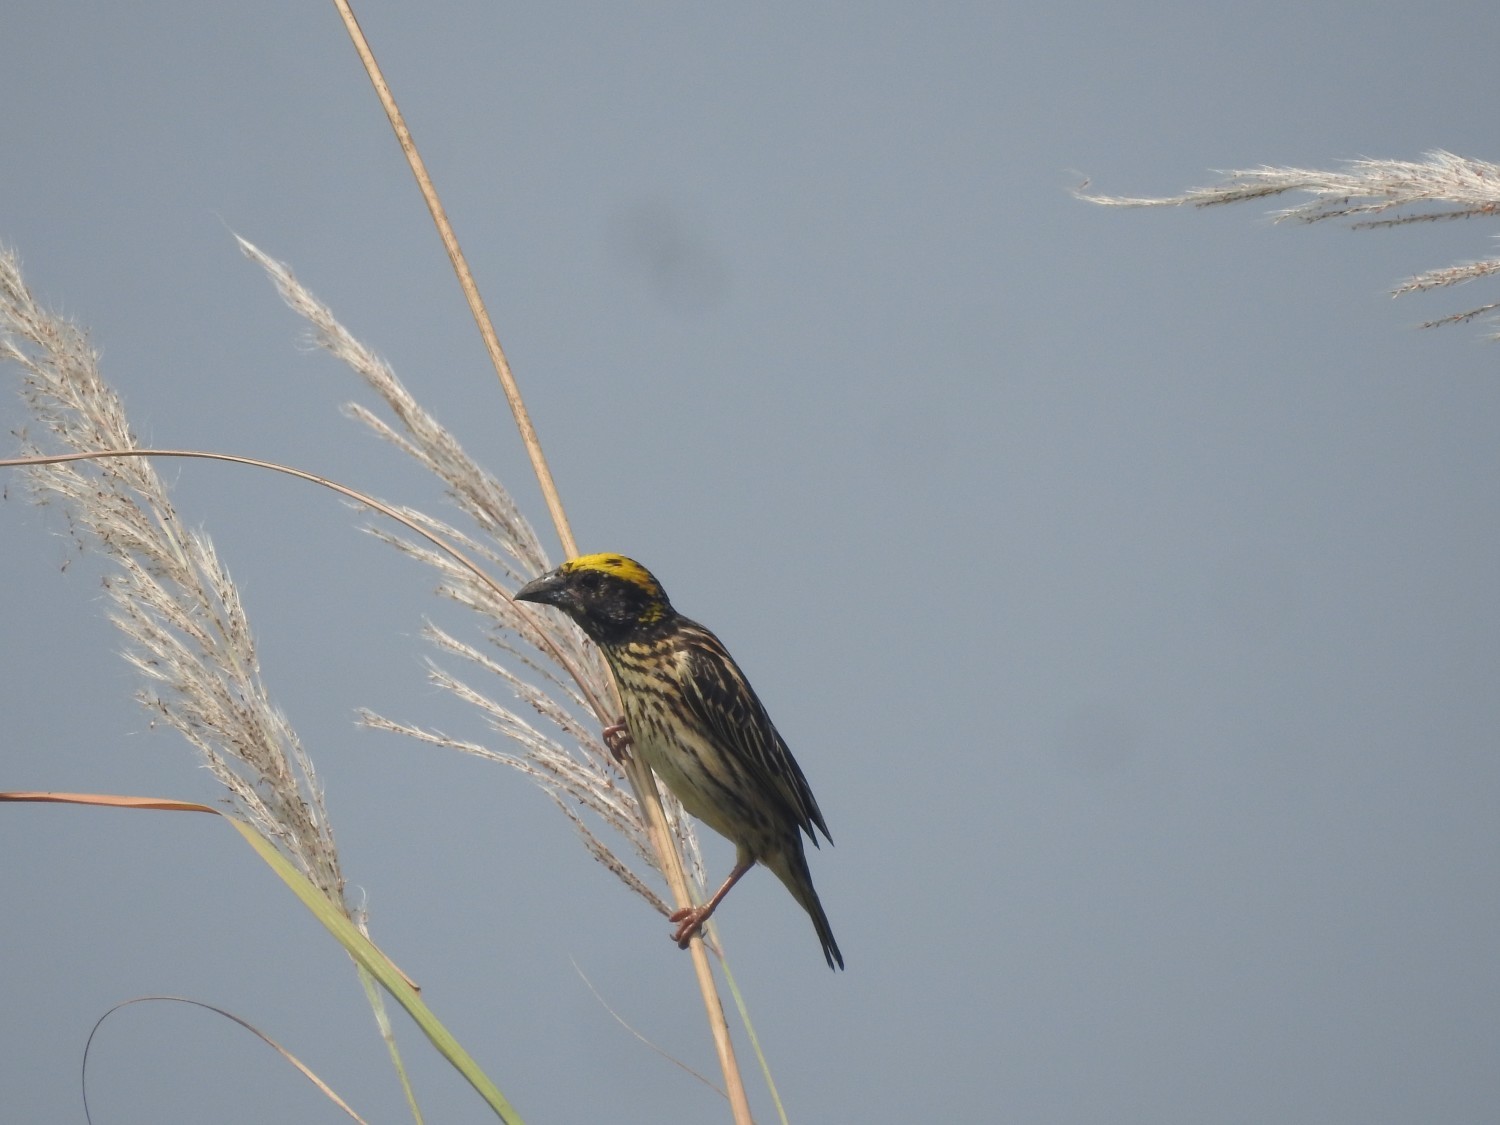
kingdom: Animalia
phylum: Chordata
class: Aves
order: Passeriformes
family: Ploceidae
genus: Ploceus
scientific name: Ploceus manyar
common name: Streaked weaver
